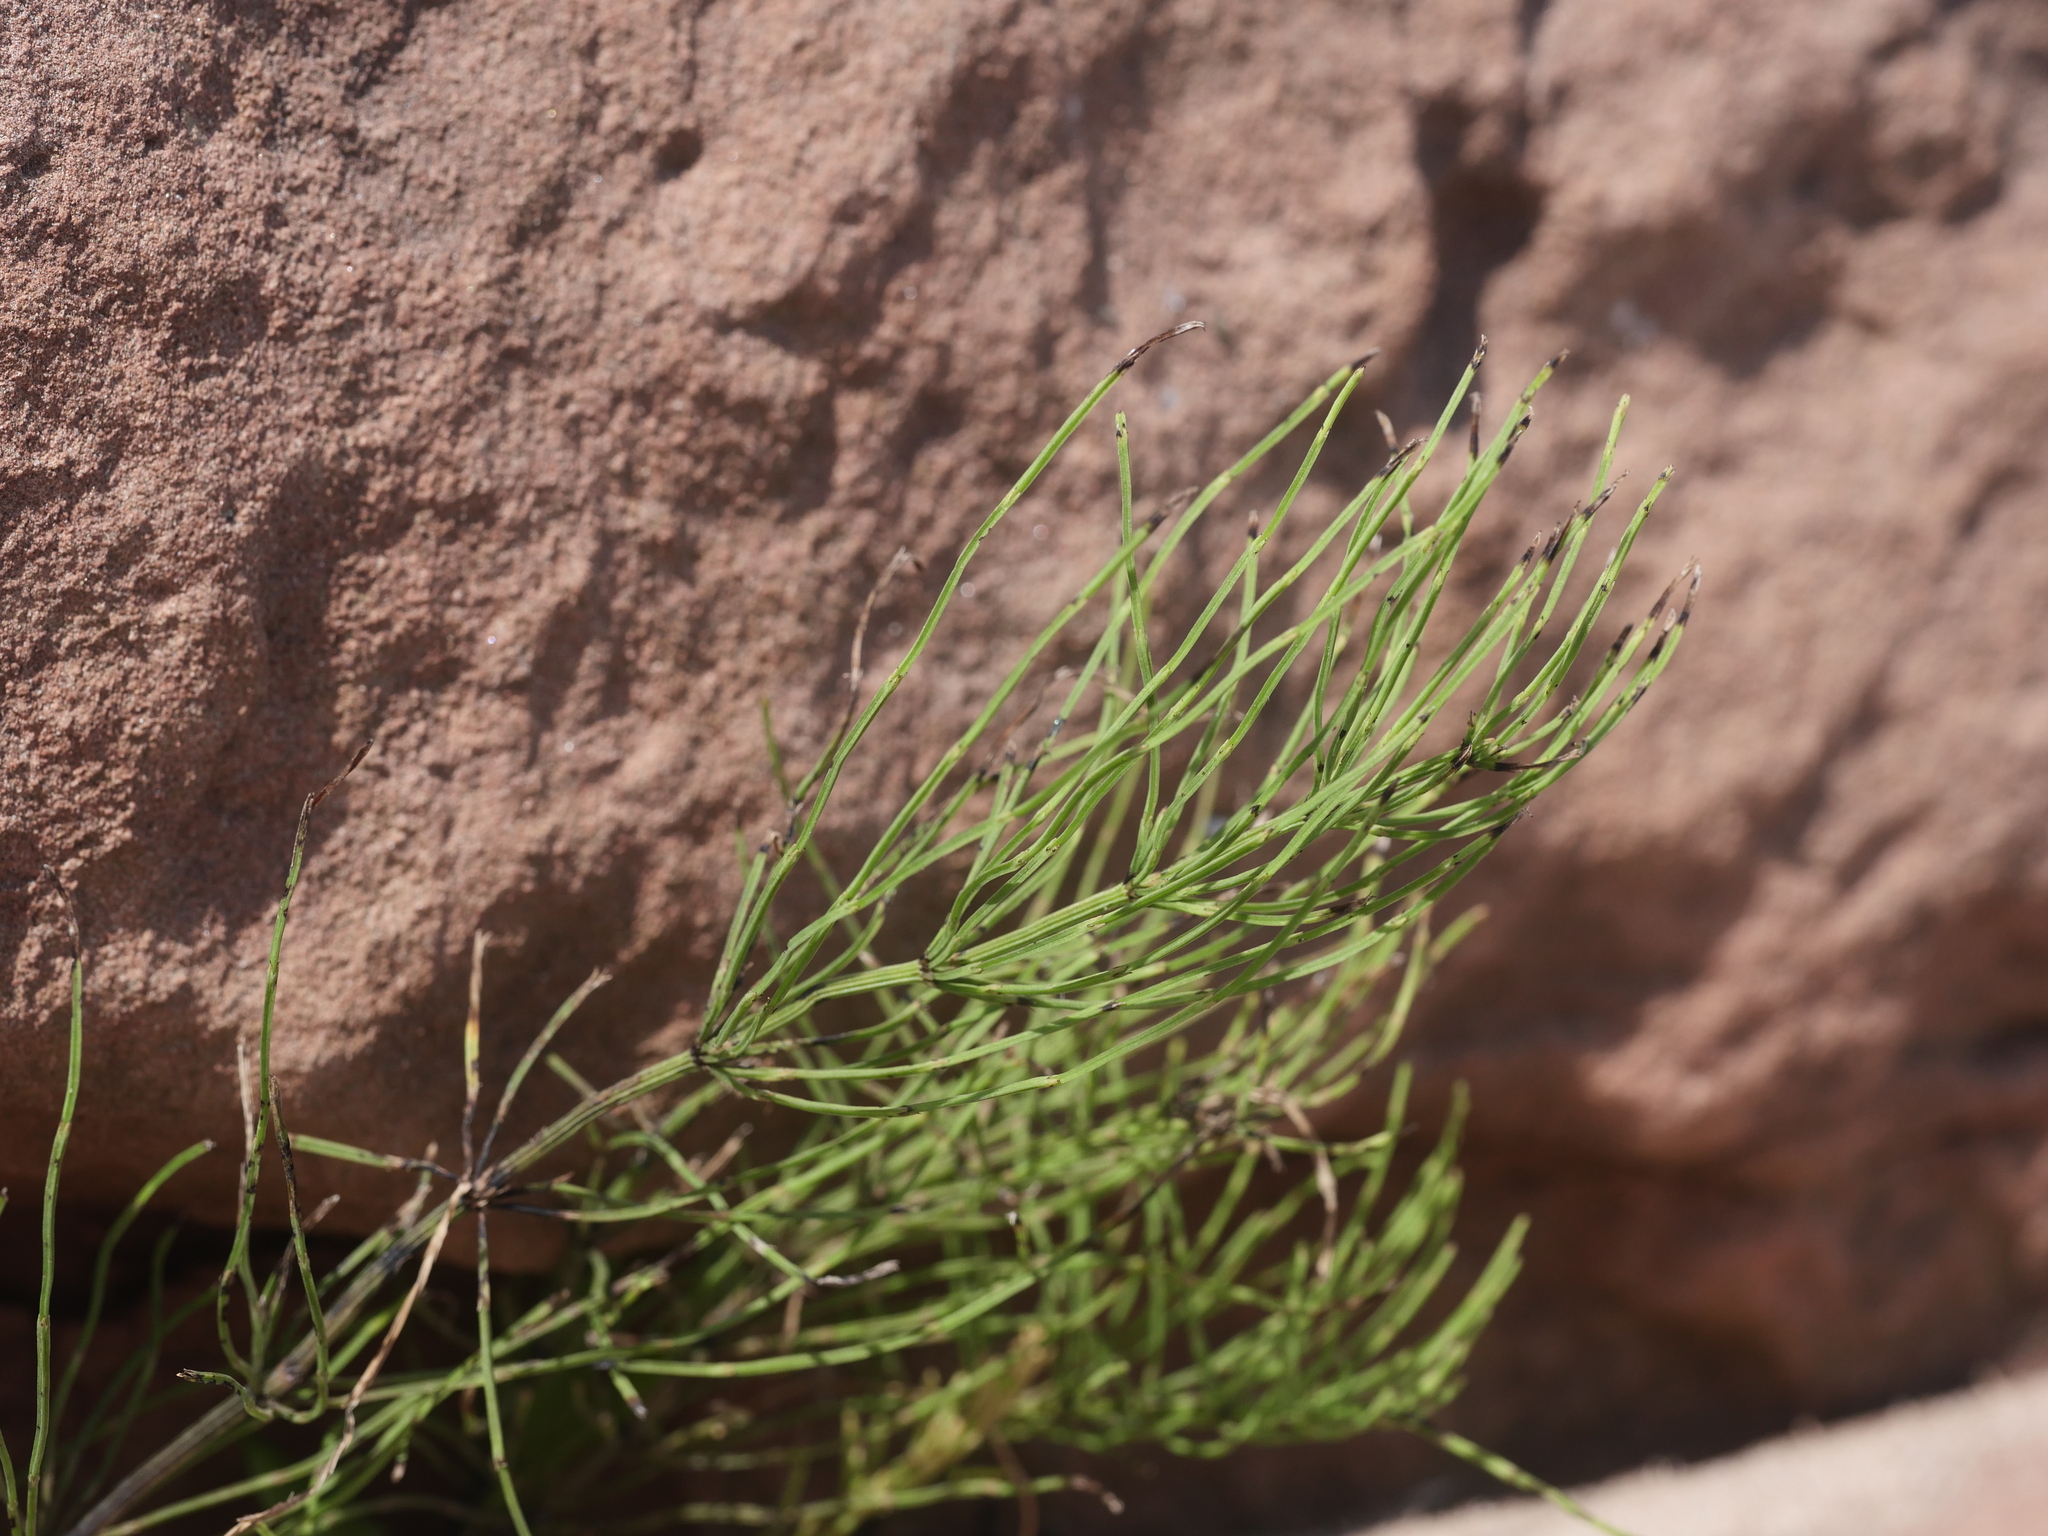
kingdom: Plantae
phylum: Tracheophyta
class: Polypodiopsida
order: Equisetales
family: Equisetaceae
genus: Equisetum
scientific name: Equisetum arvense
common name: Field horsetail
